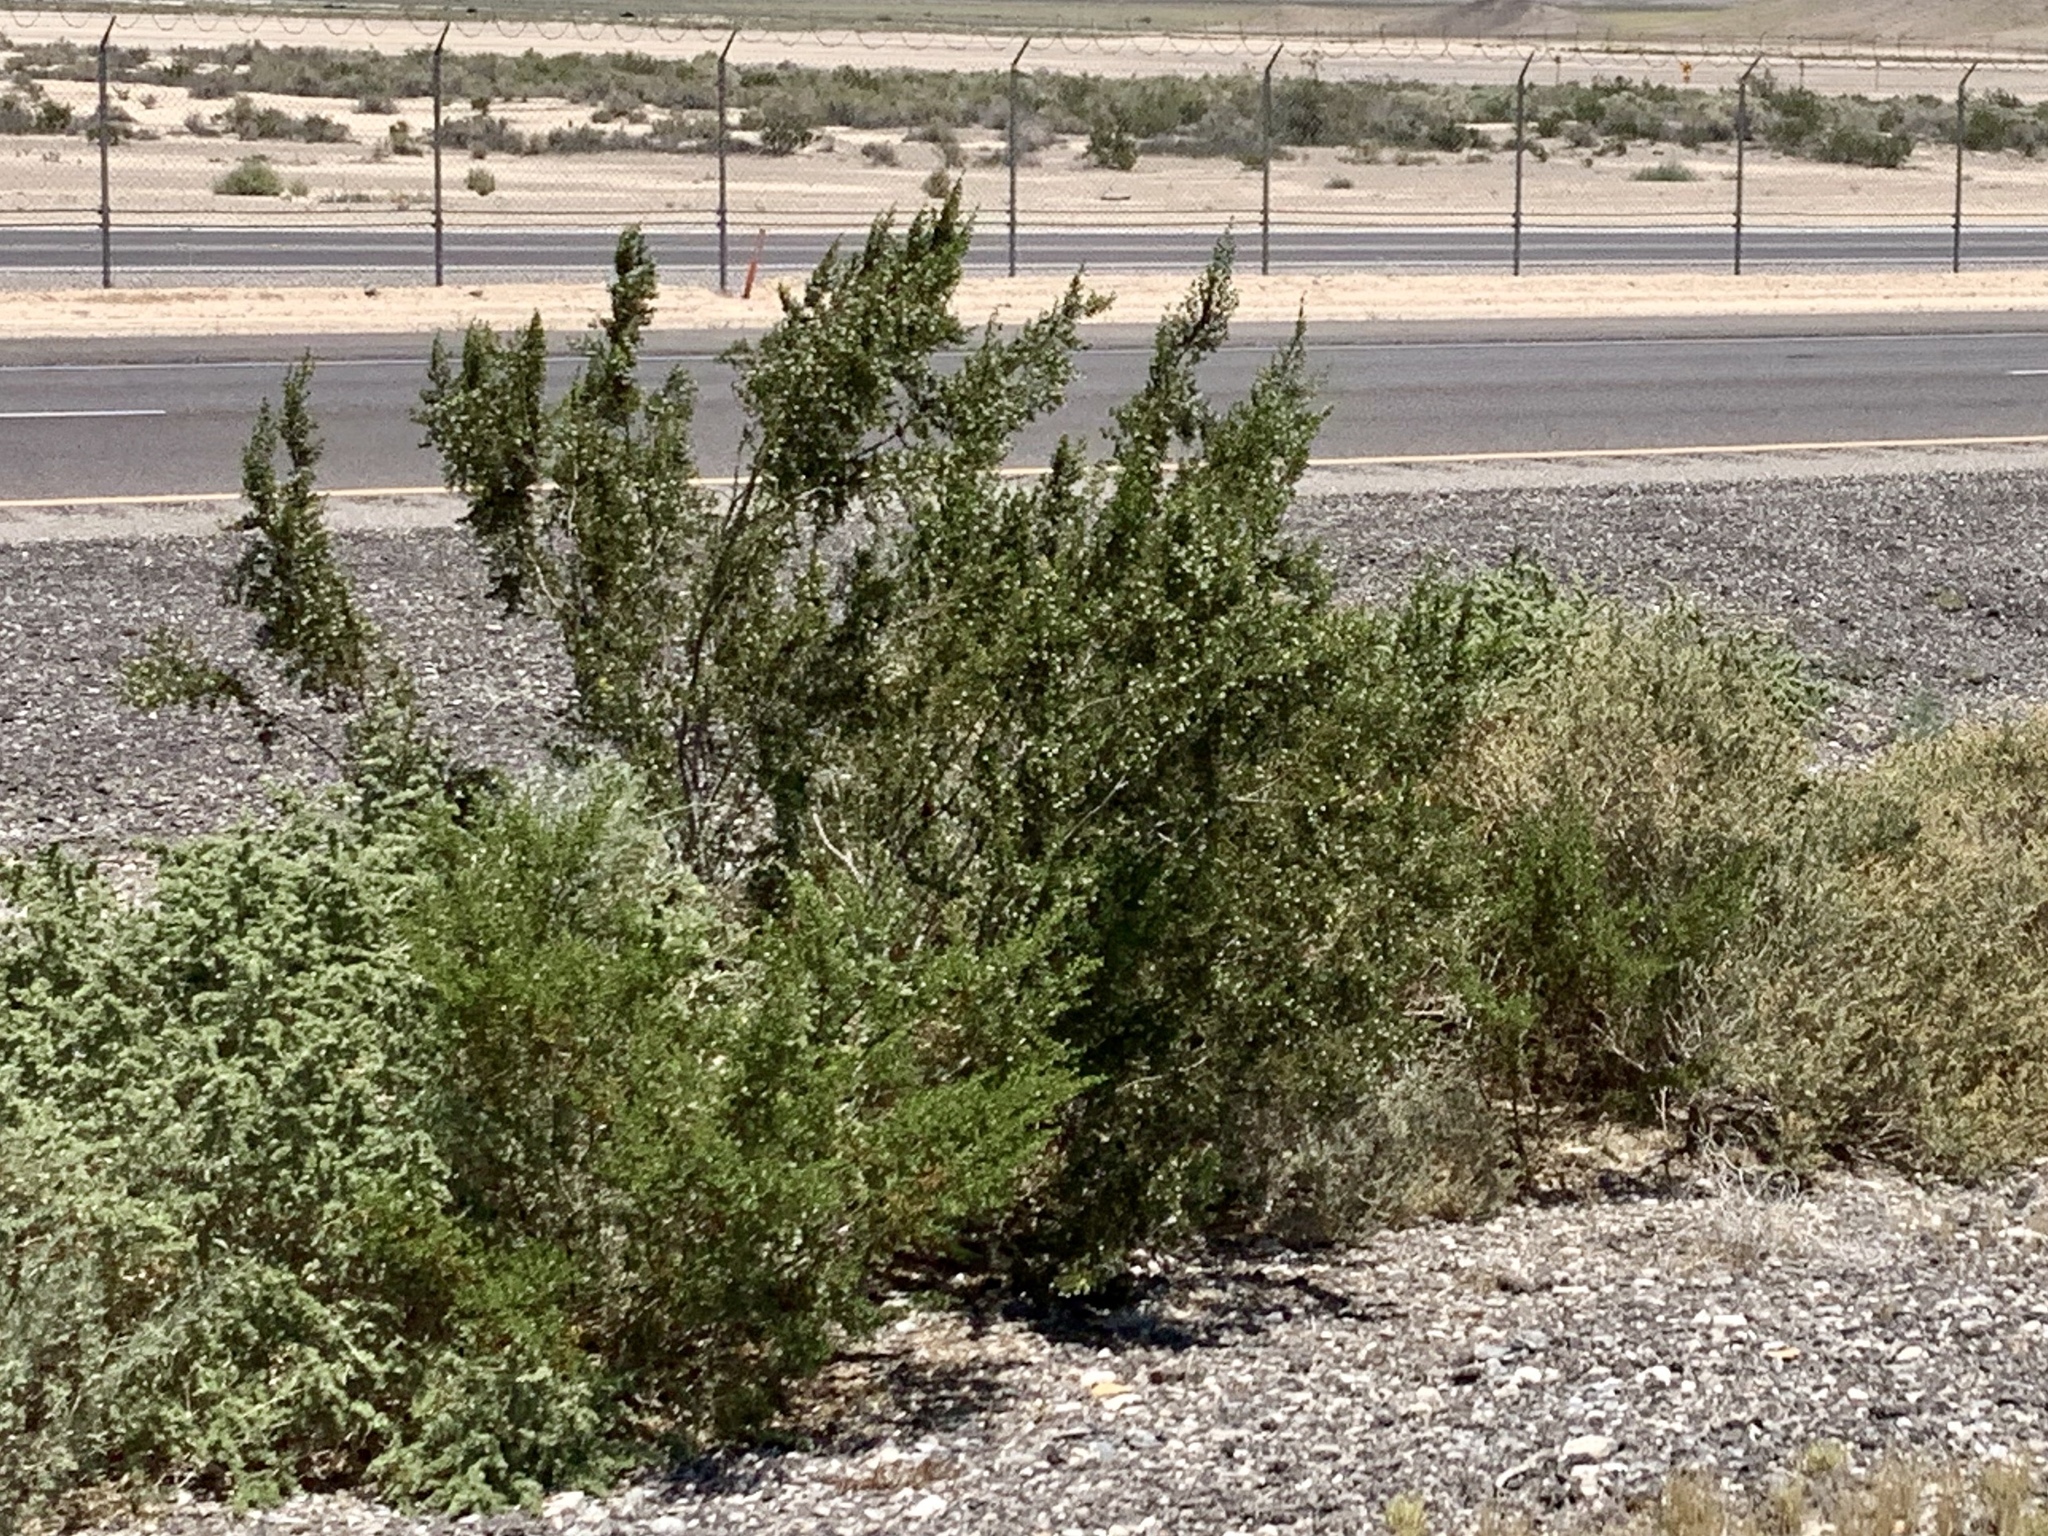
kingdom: Plantae
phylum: Tracheophyta
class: Magnoliopsida
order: Zygophyllales
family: Zygophyllaceae
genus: Larrea
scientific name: Larrea tridentata
